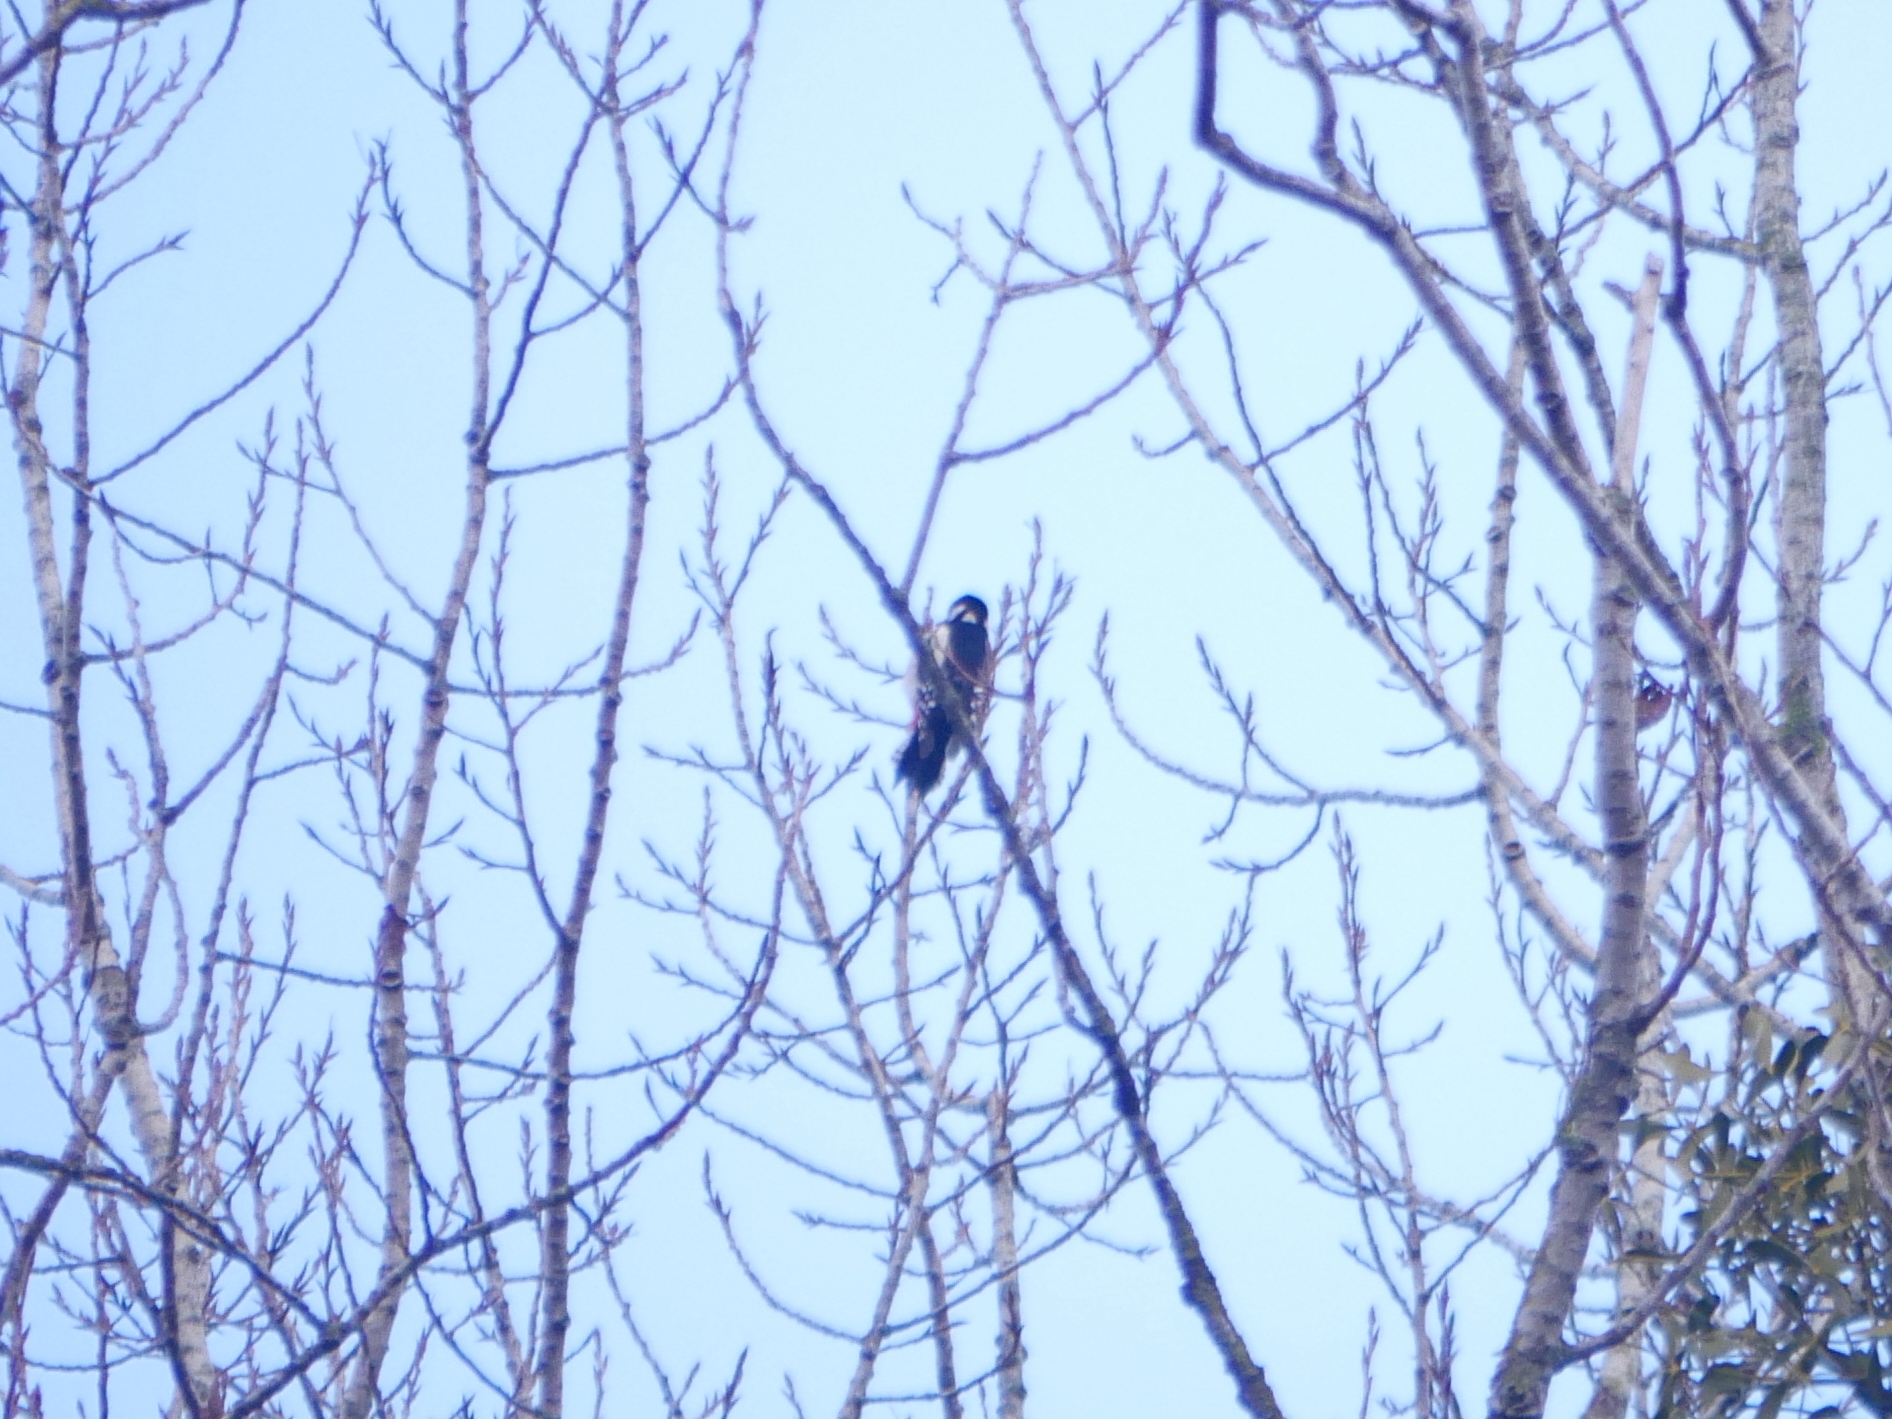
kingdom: Animalia
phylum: Chordata
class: Aves
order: Piciformes
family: Picidae
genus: Dendrocopos
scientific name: Dendrocopos major
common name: Great spotted woodpecker
